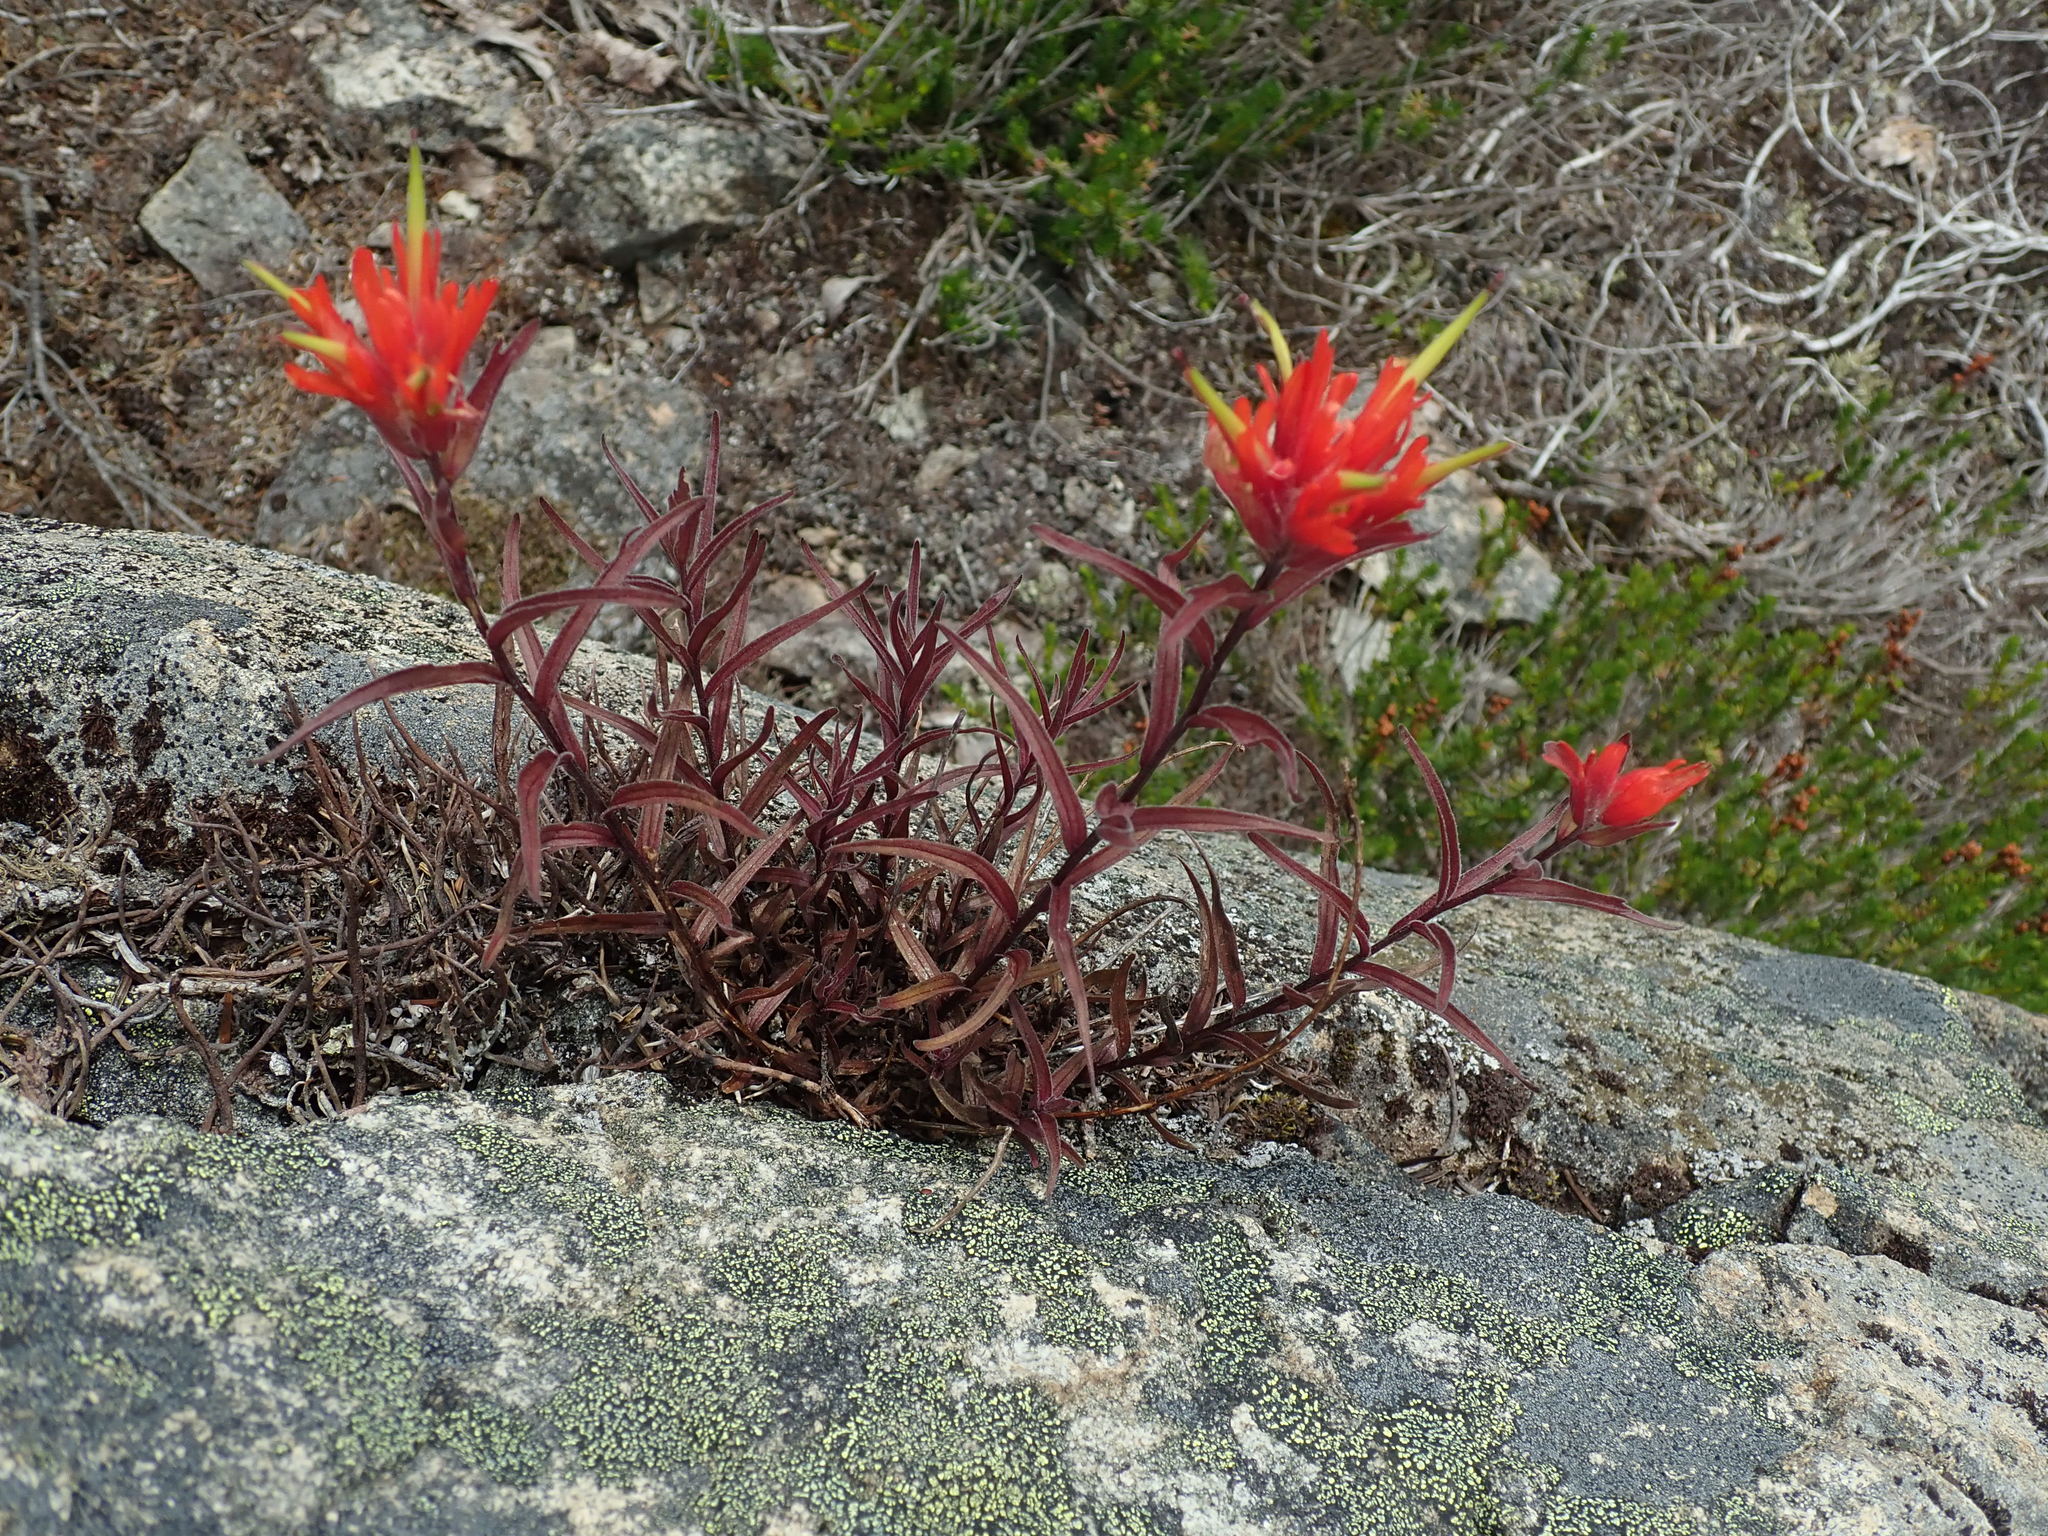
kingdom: Plantae
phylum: Tracheophyta
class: Magnoliopsida
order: Lamiales
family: Orobanchaceae
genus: Castilleja
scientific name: Castilleja miniata
